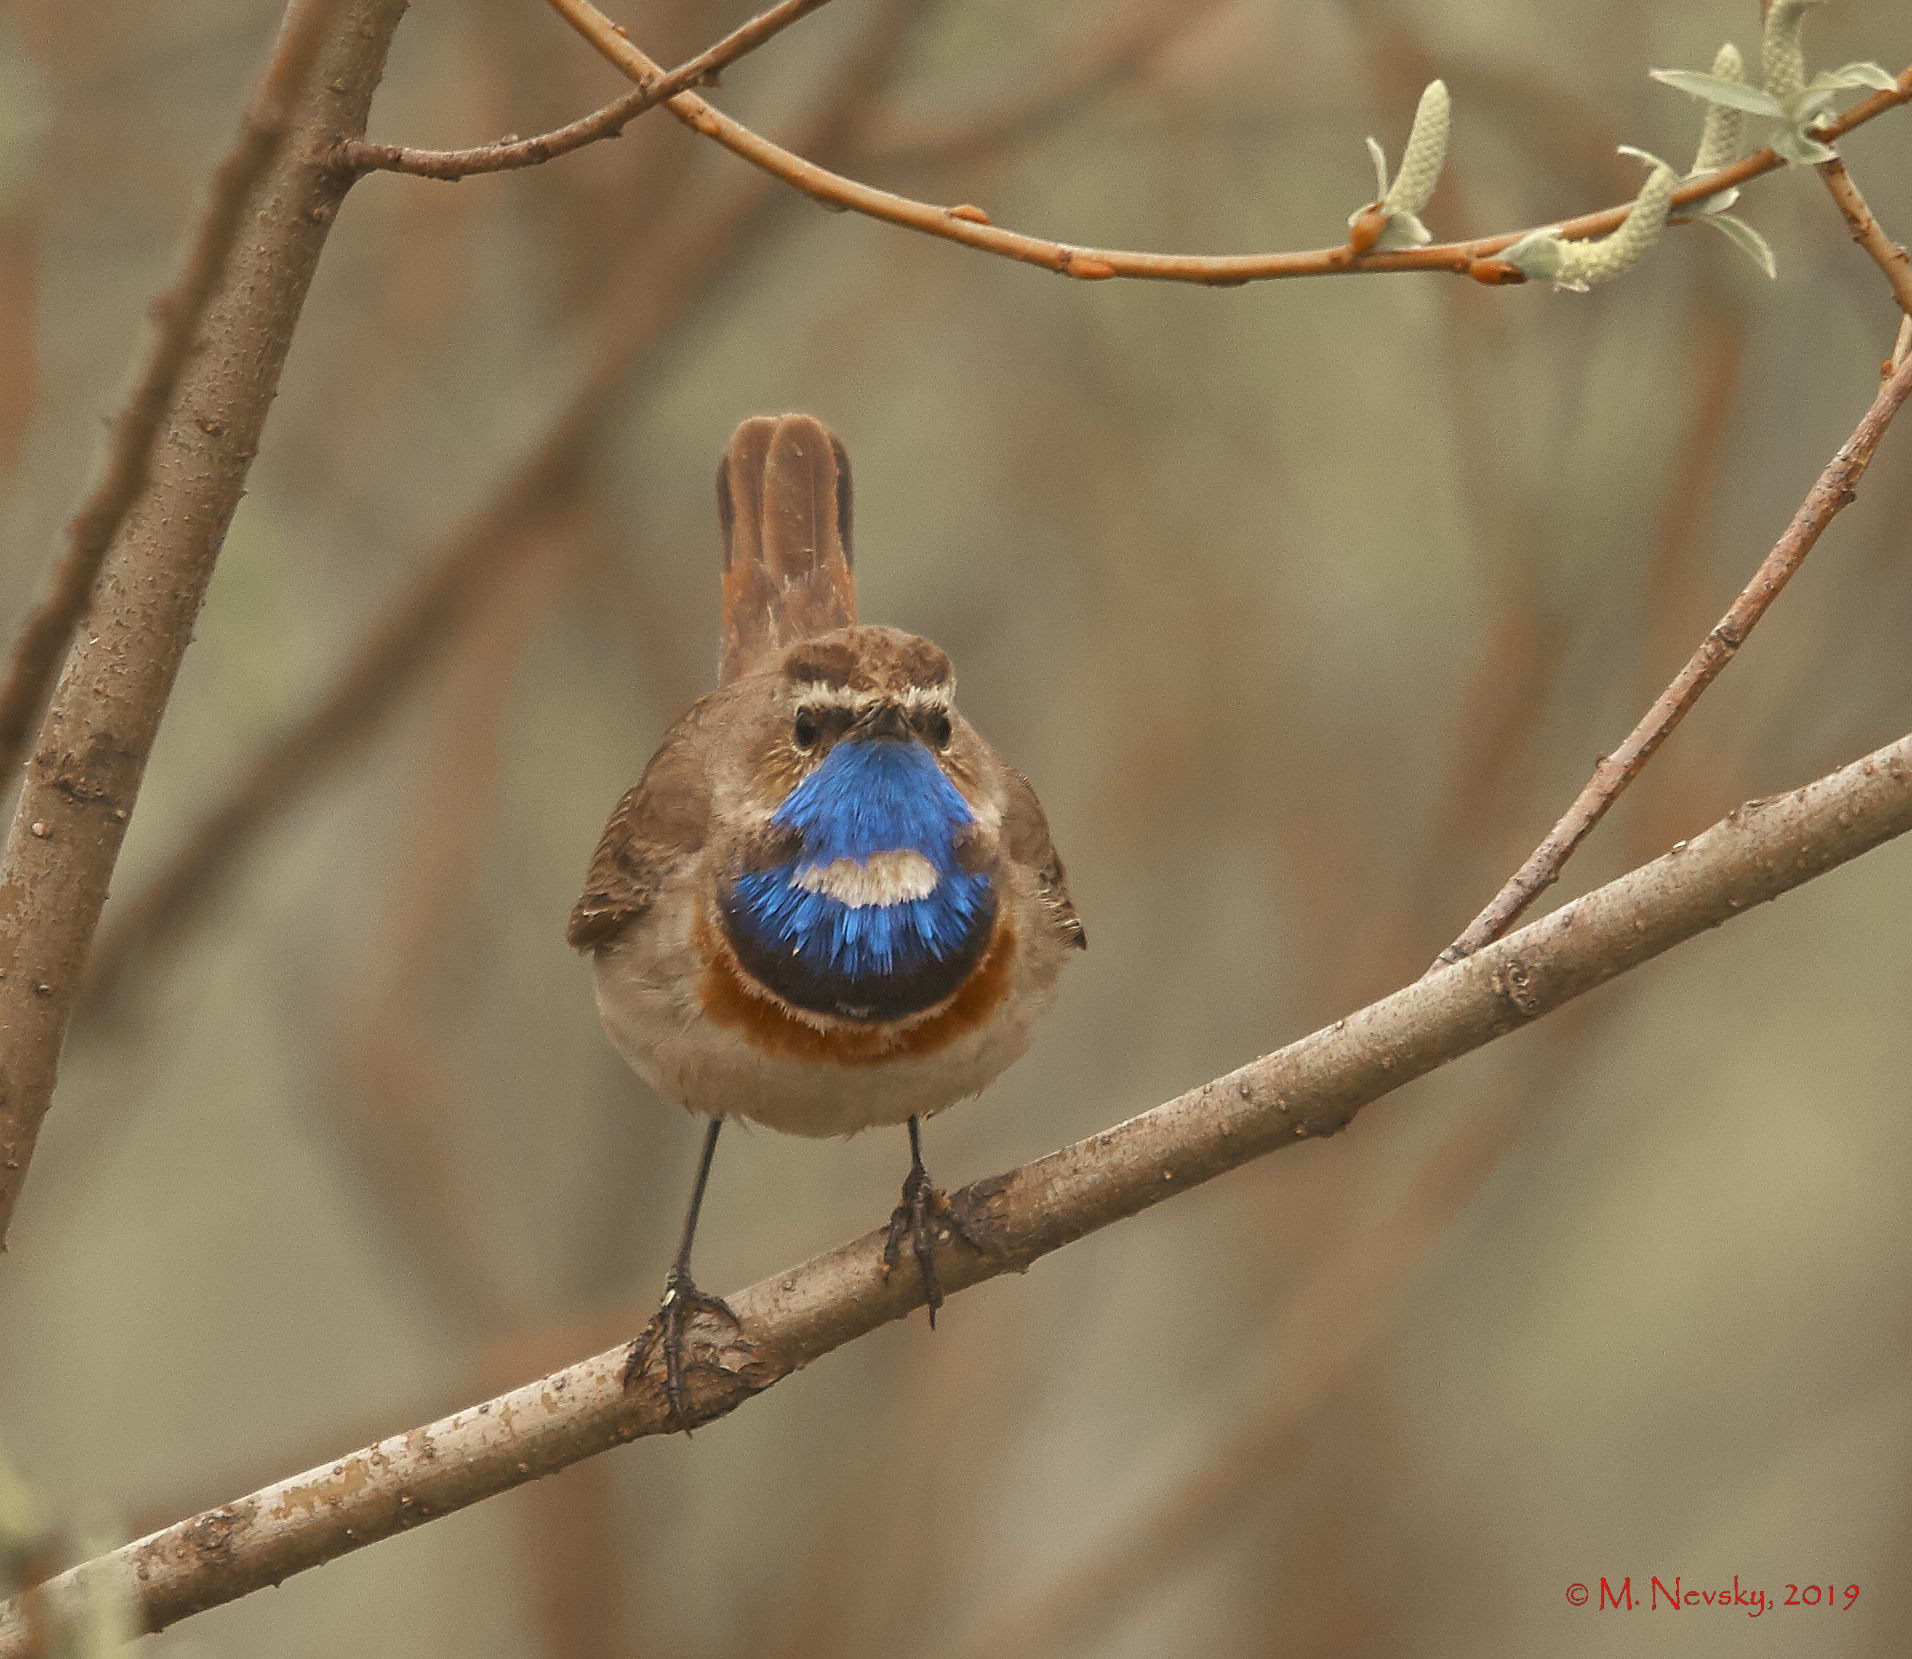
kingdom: Animalia
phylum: Chordata
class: Aves
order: Passeriformes
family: Muscicapidae
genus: Luscinia
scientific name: Luscinia svecica
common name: Bluethroat
